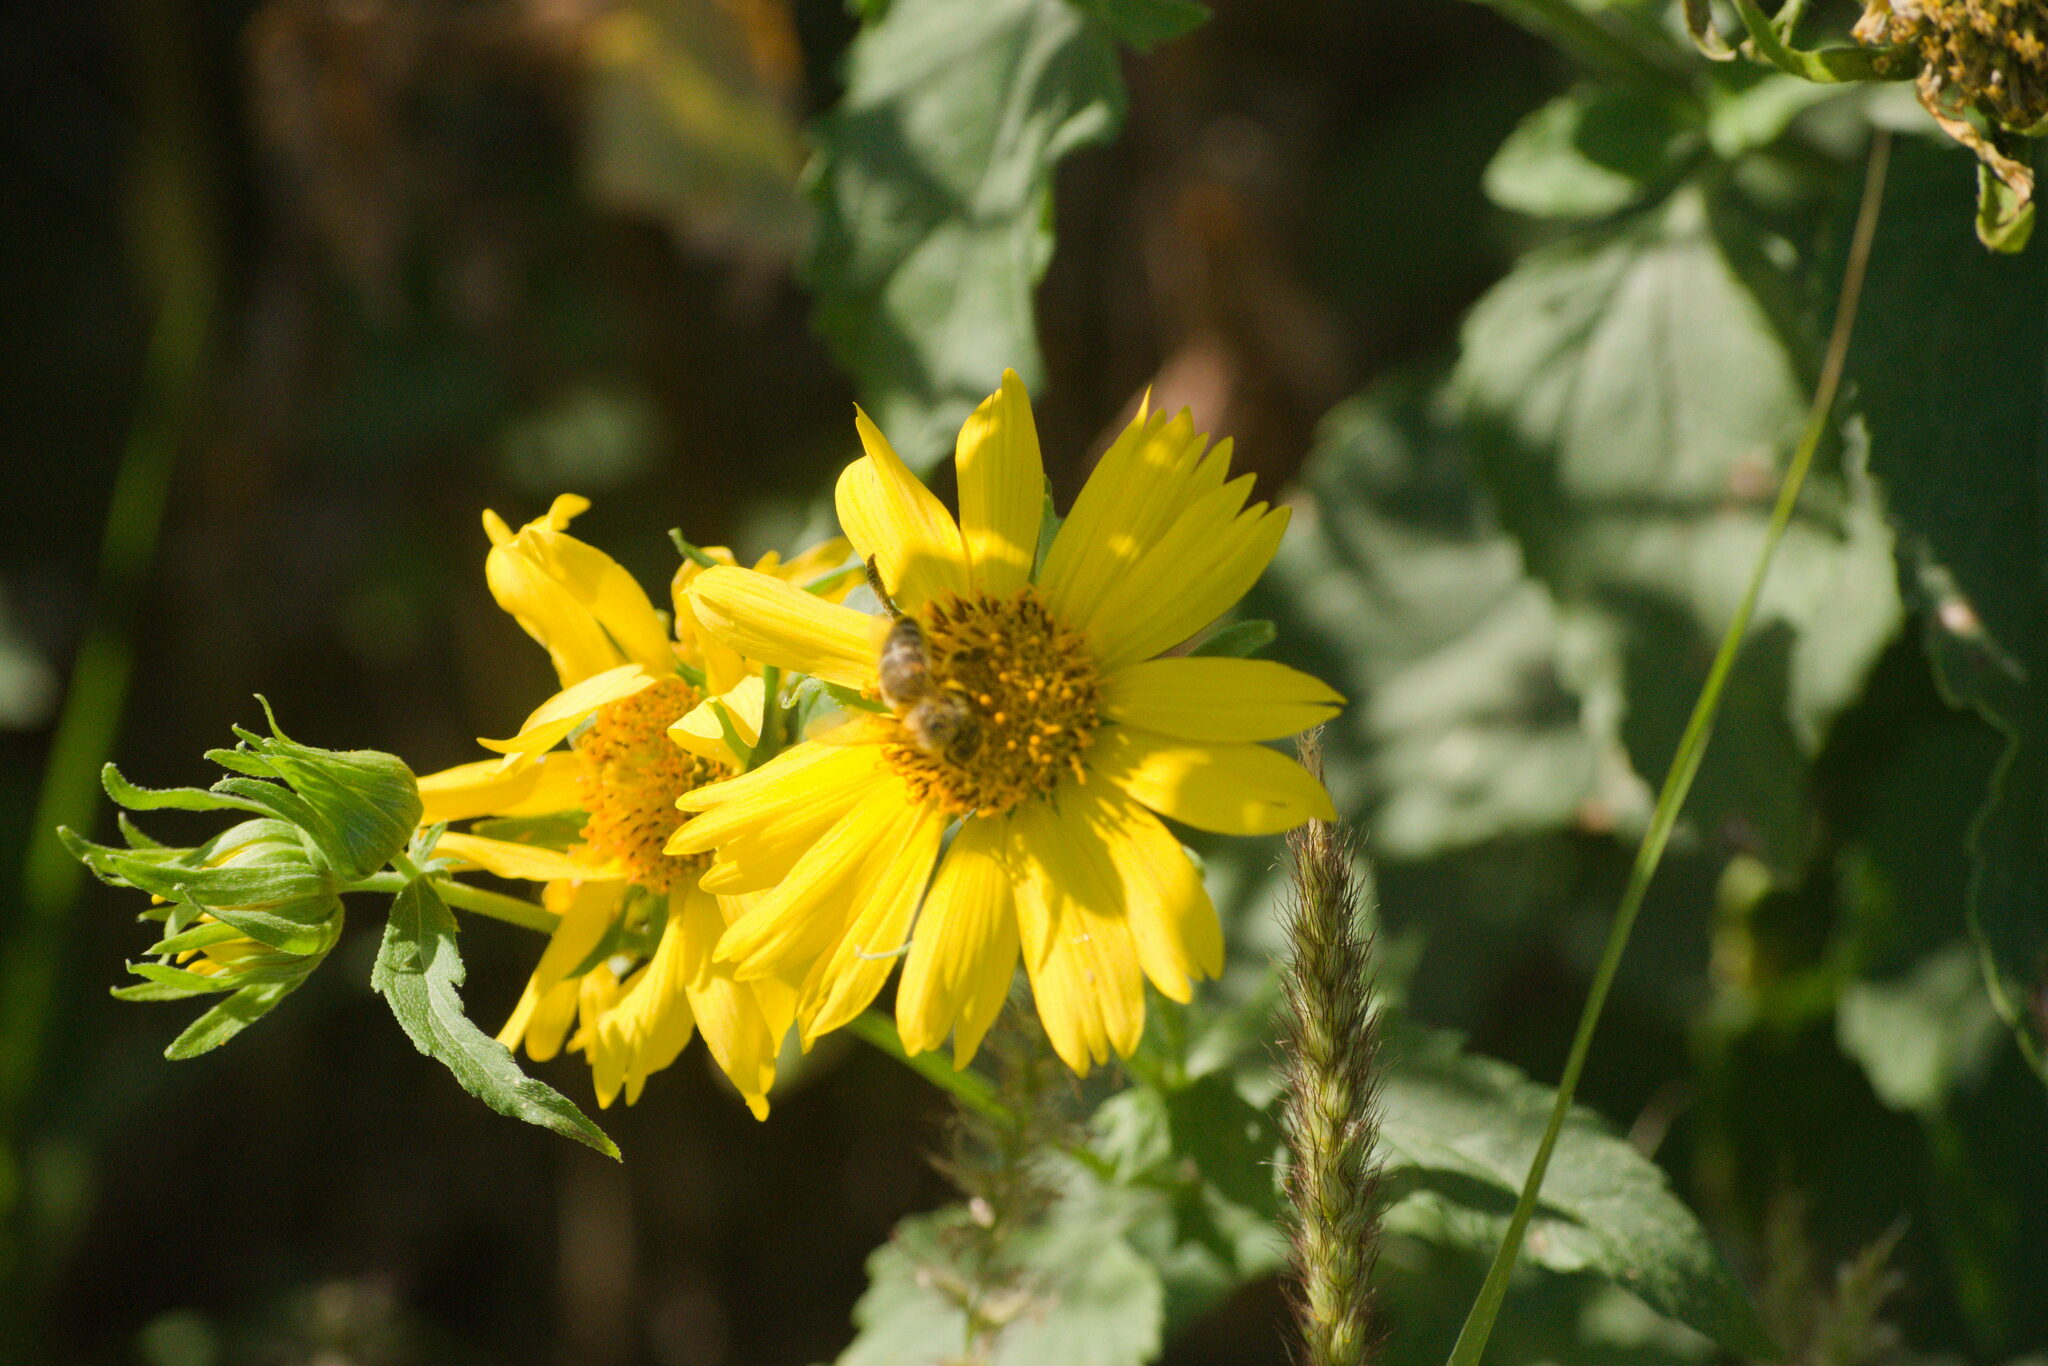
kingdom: Animalia
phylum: Arthropoda
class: Insecta
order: Hymenoptera
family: Apidae
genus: Apis
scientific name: Apis mellifera
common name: Honey bee
